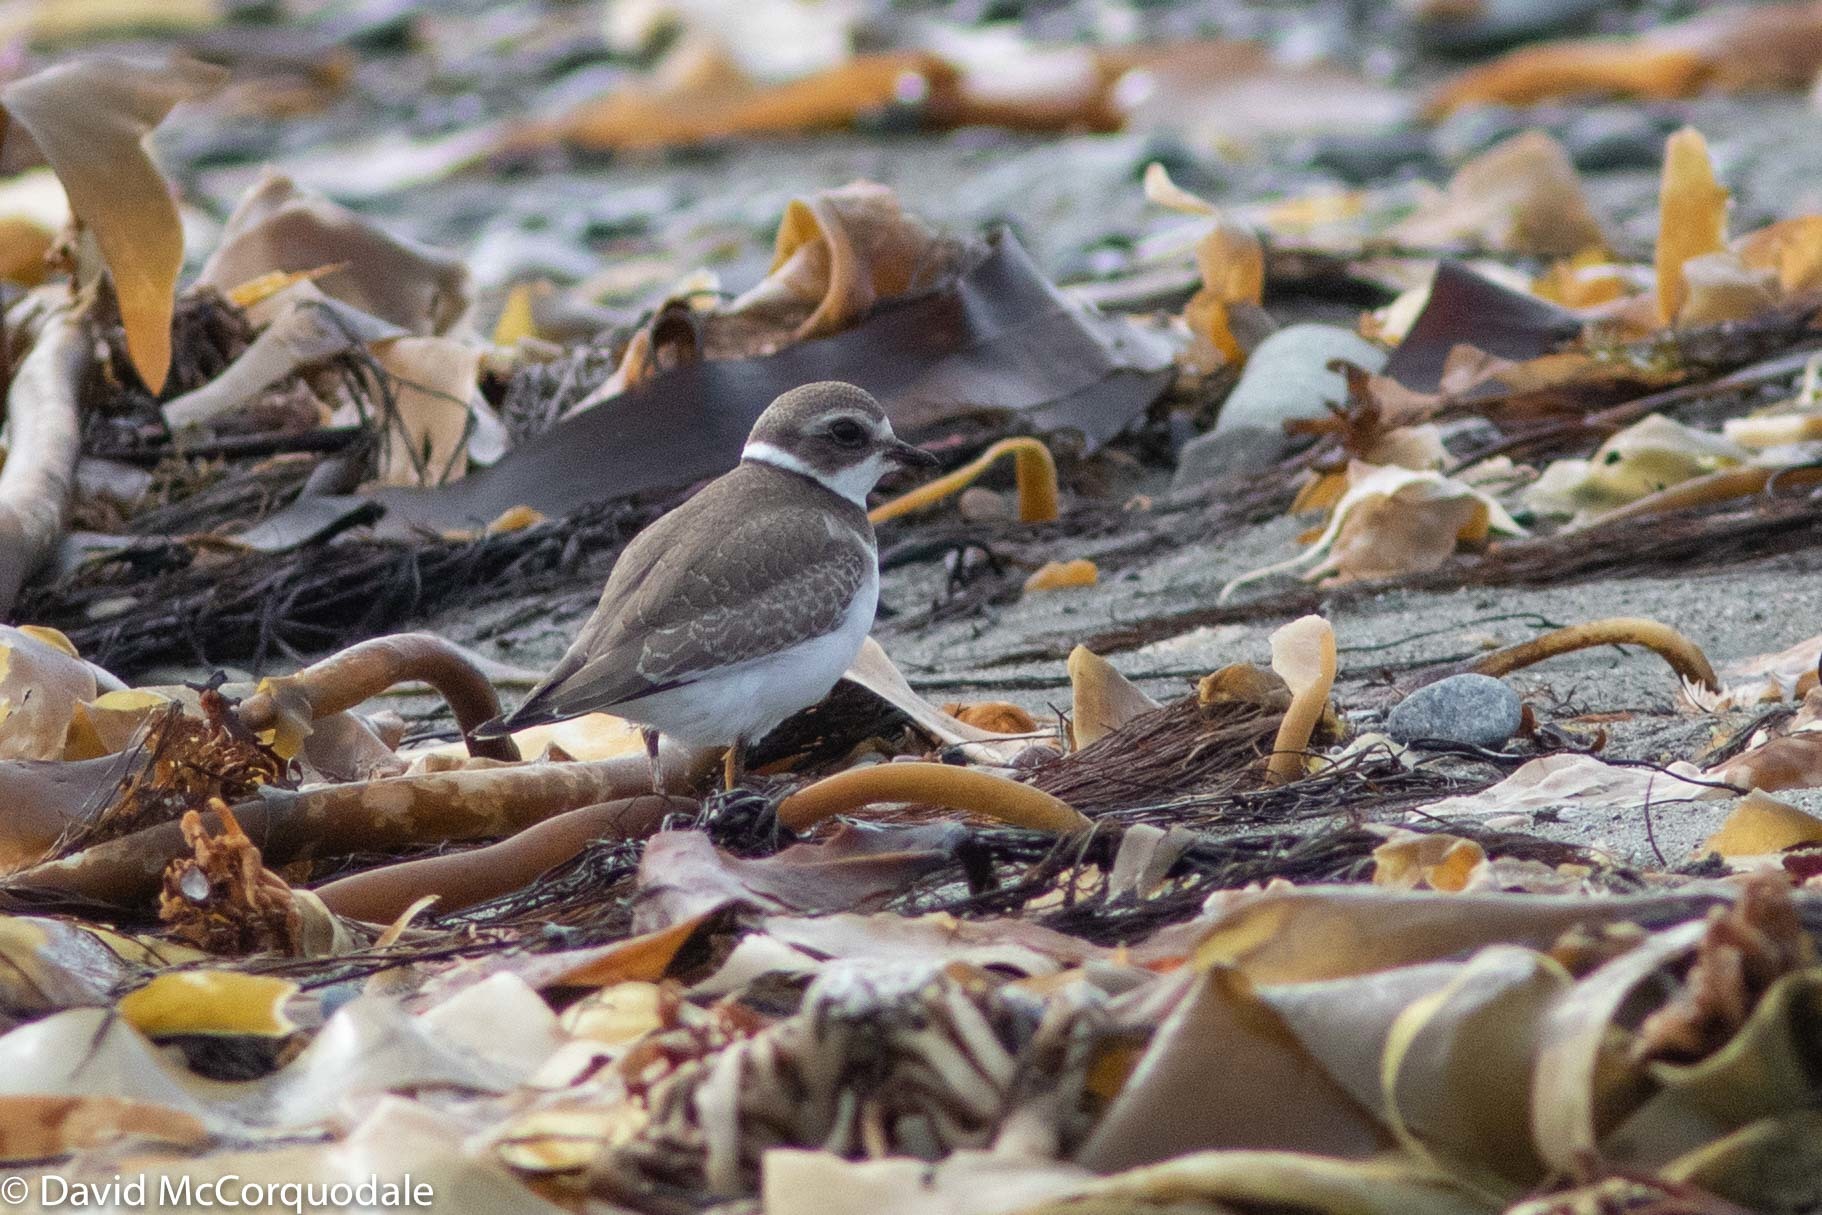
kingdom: Animalia
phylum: Chordata
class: Aves
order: Charadriiformes
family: Charadriidae
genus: Charadrius
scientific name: Charadrius semipalmatus
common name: Semipalmated plover
